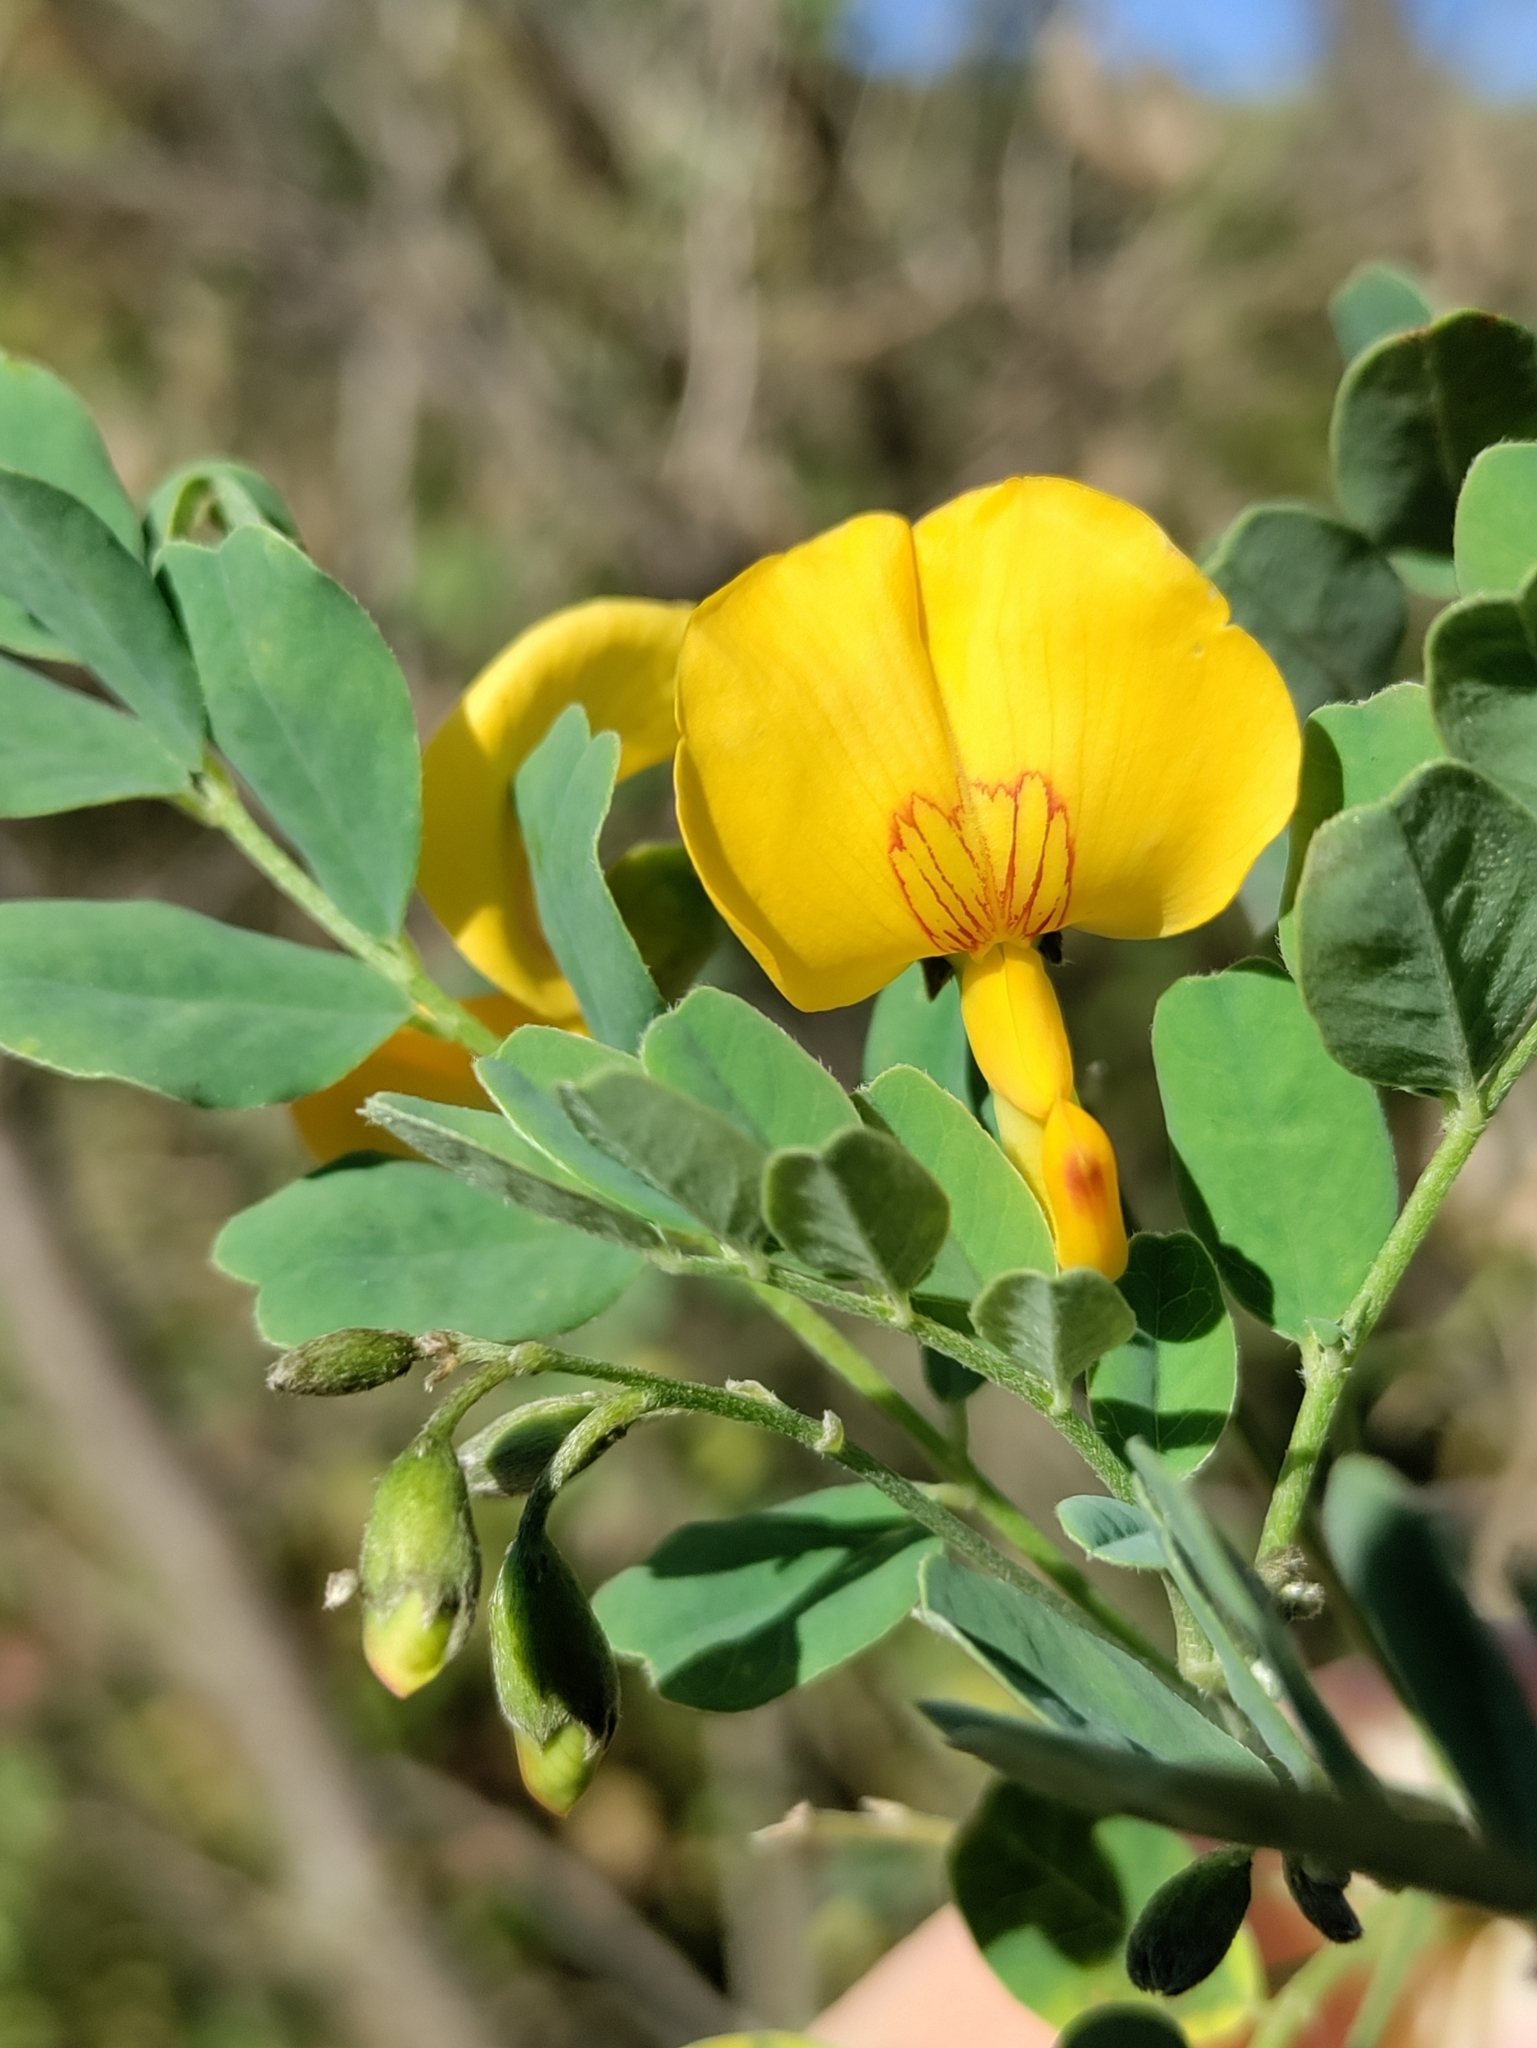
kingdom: Plantae
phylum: Tracheophyta
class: Magnoliopsida
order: Fabales
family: Fabaceae
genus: Colutea
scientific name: Colutea arborescens
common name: Bladder-senna
